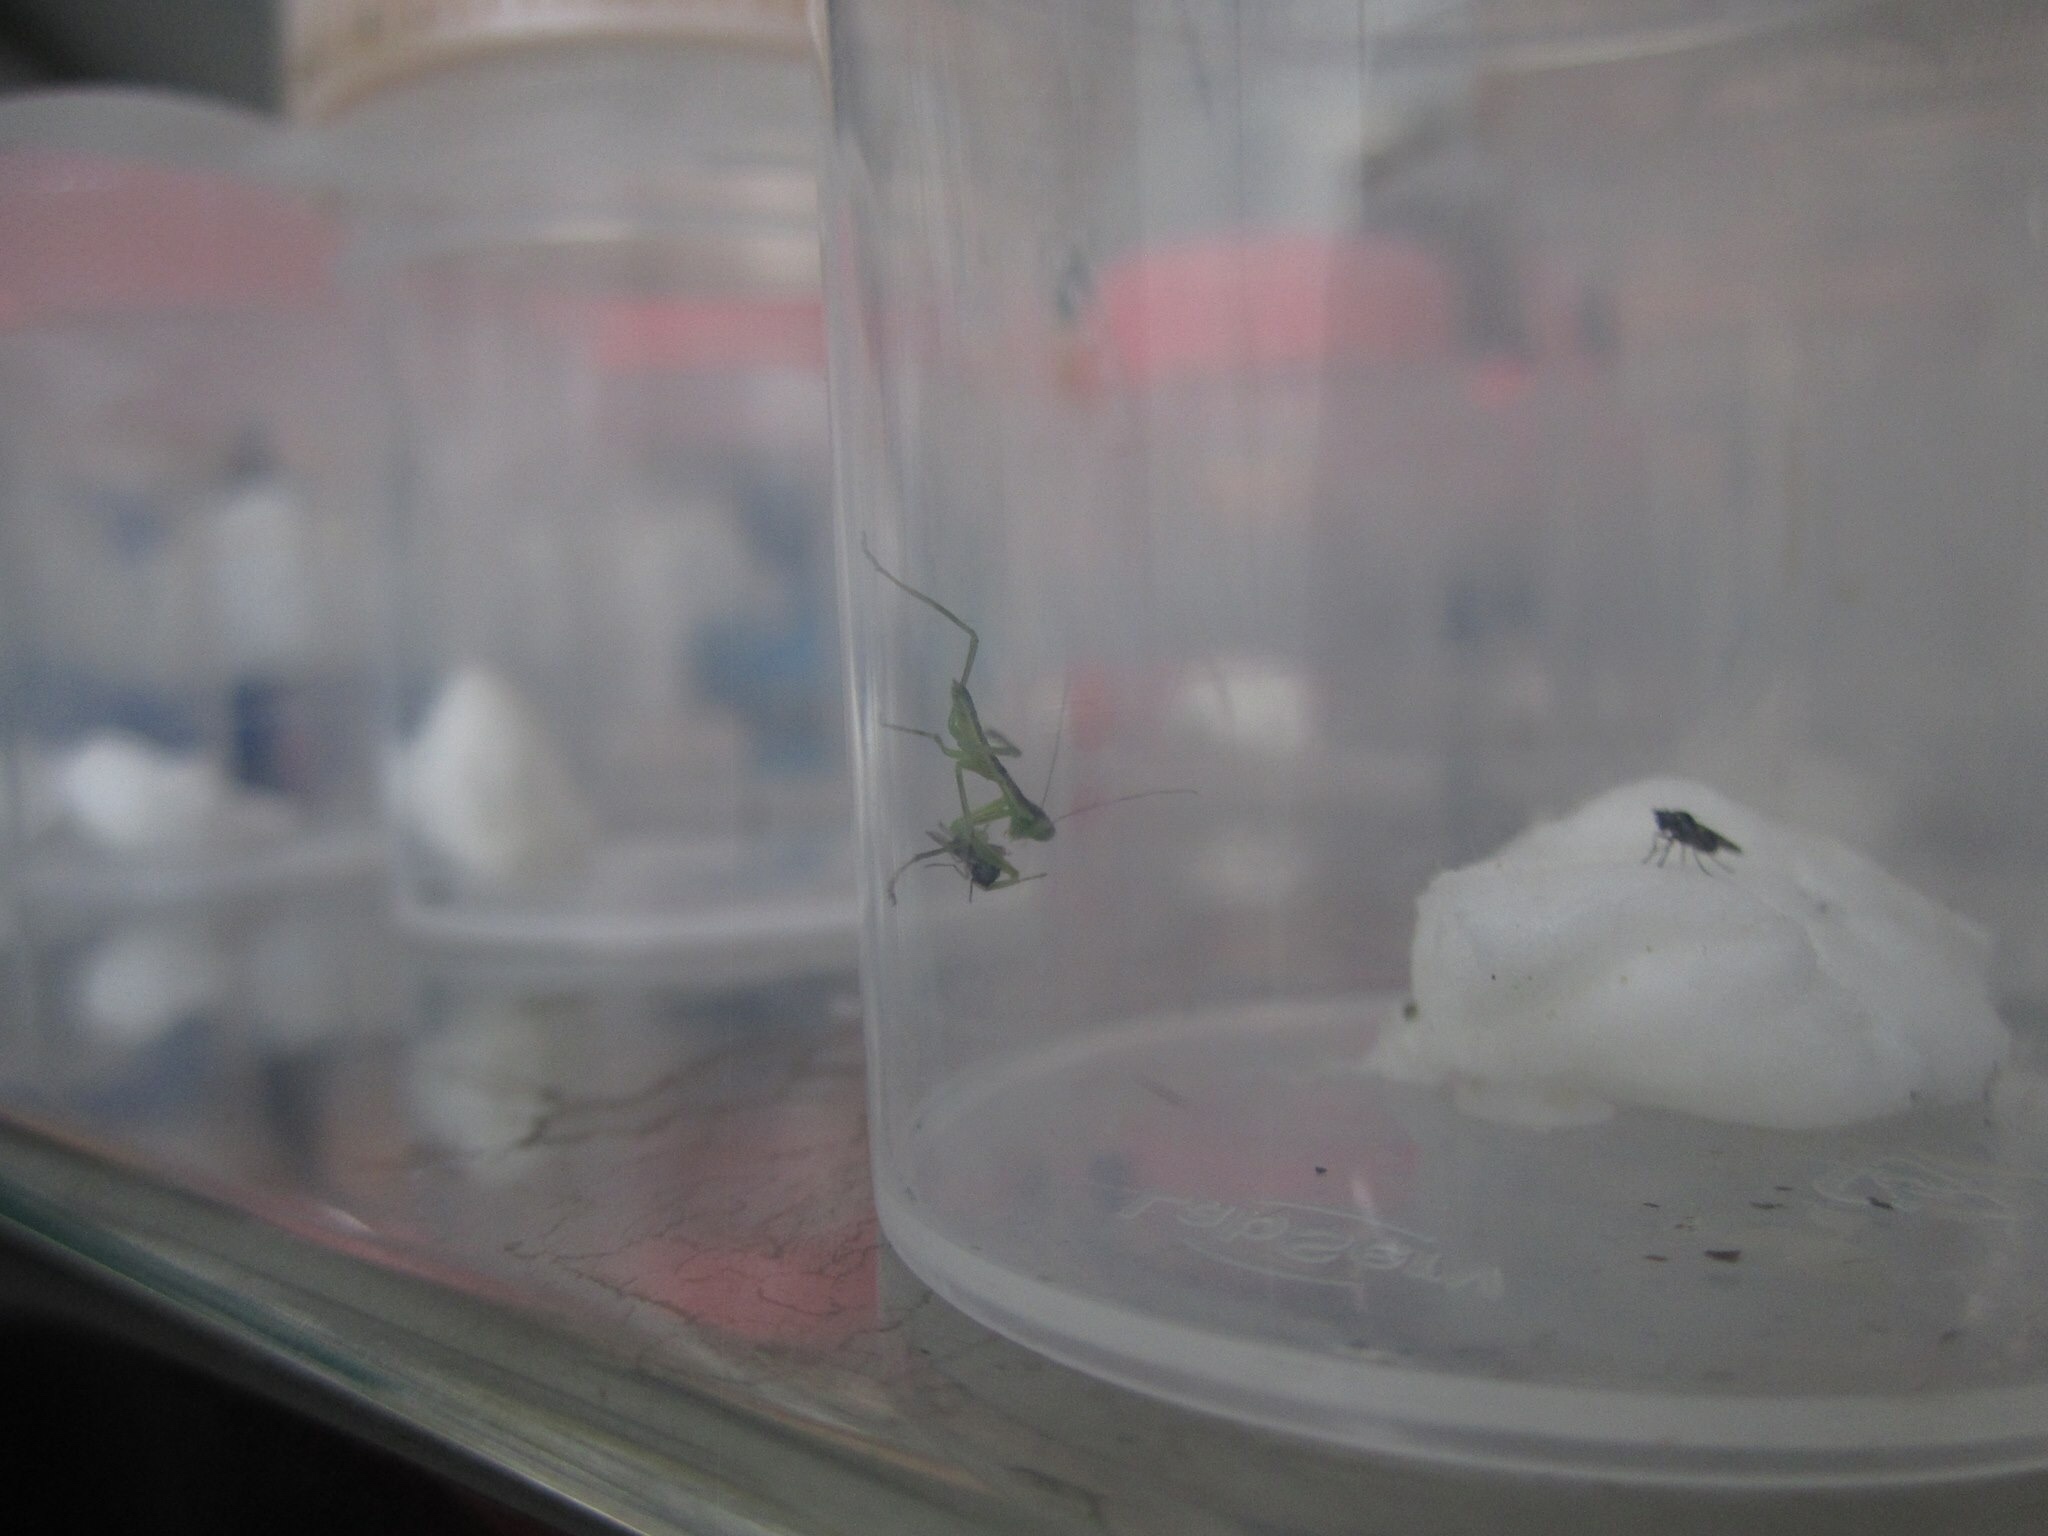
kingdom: Animalia
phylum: Arthropoda
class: Insecta
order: Mantodea
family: Mantidae
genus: Orthodera
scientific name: Orthodera novaezealandiae
